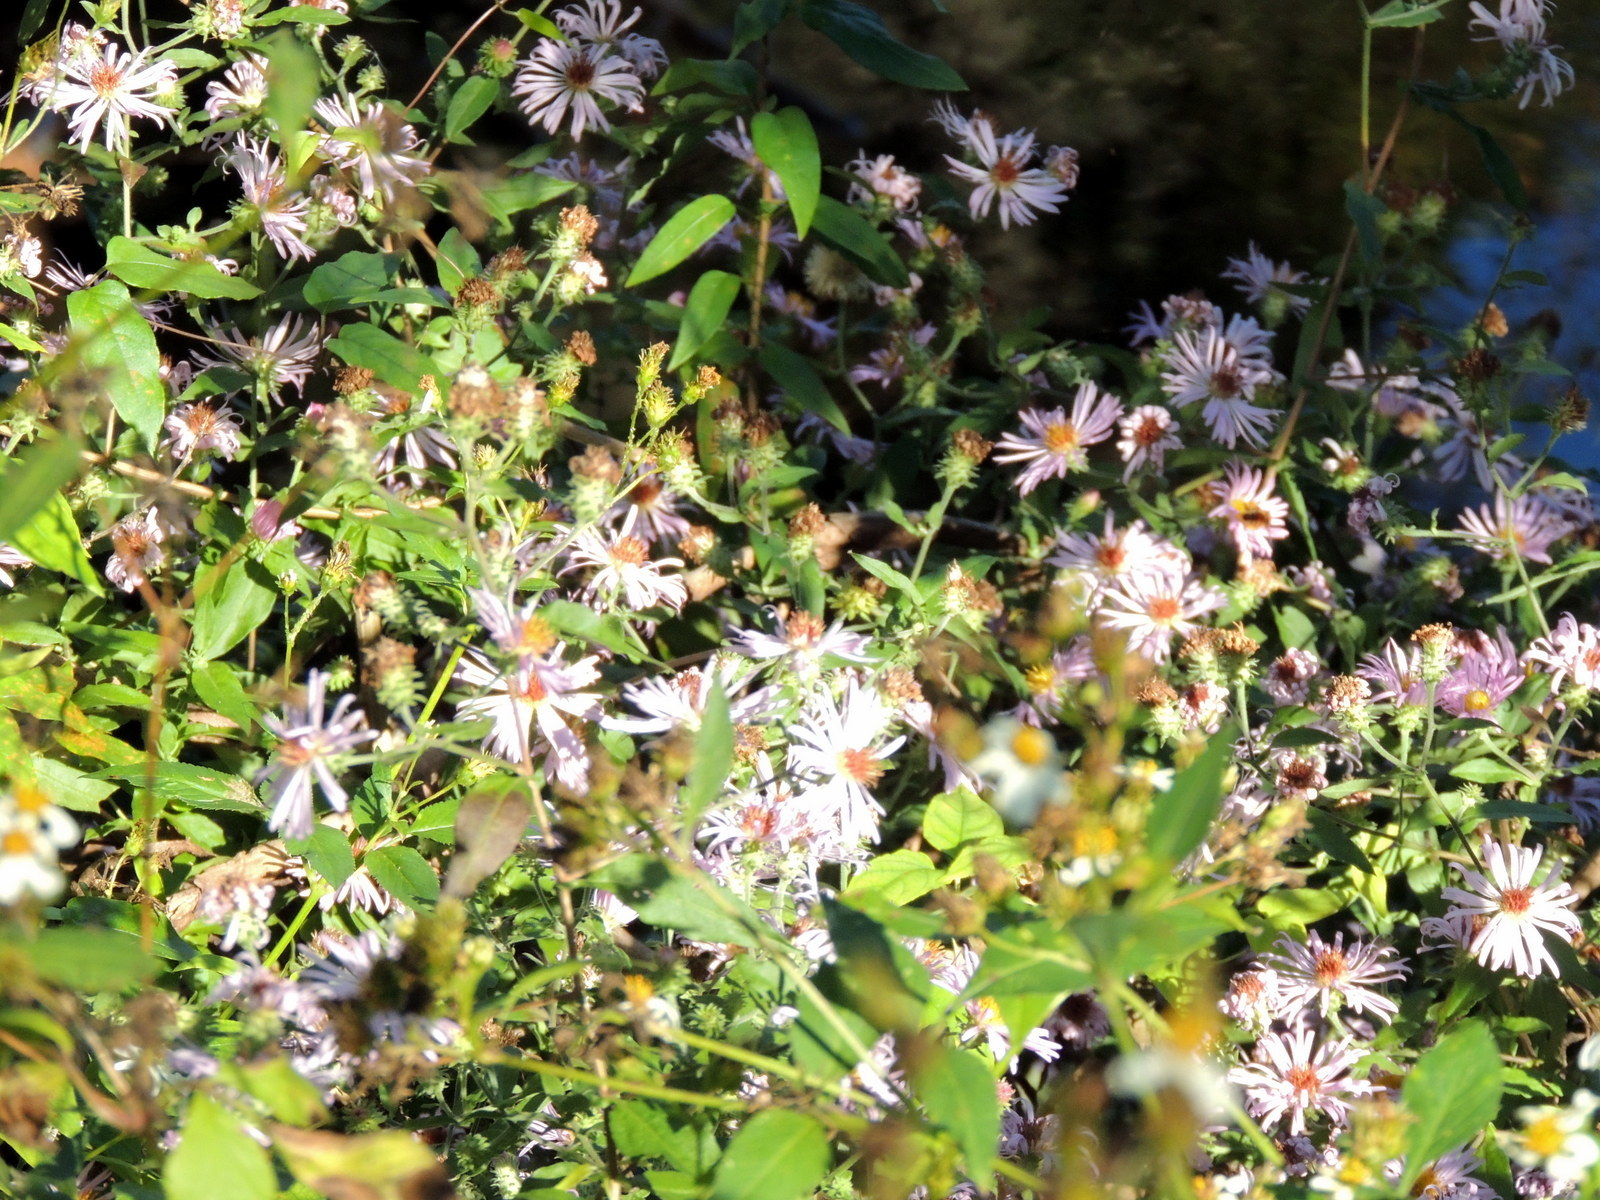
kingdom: Plantae
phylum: Tracheophyta
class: Magnoliopsida
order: Asterales
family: Asteraceae
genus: Ampelaster
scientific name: Ampelaster carolinianus
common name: Climbing aster
